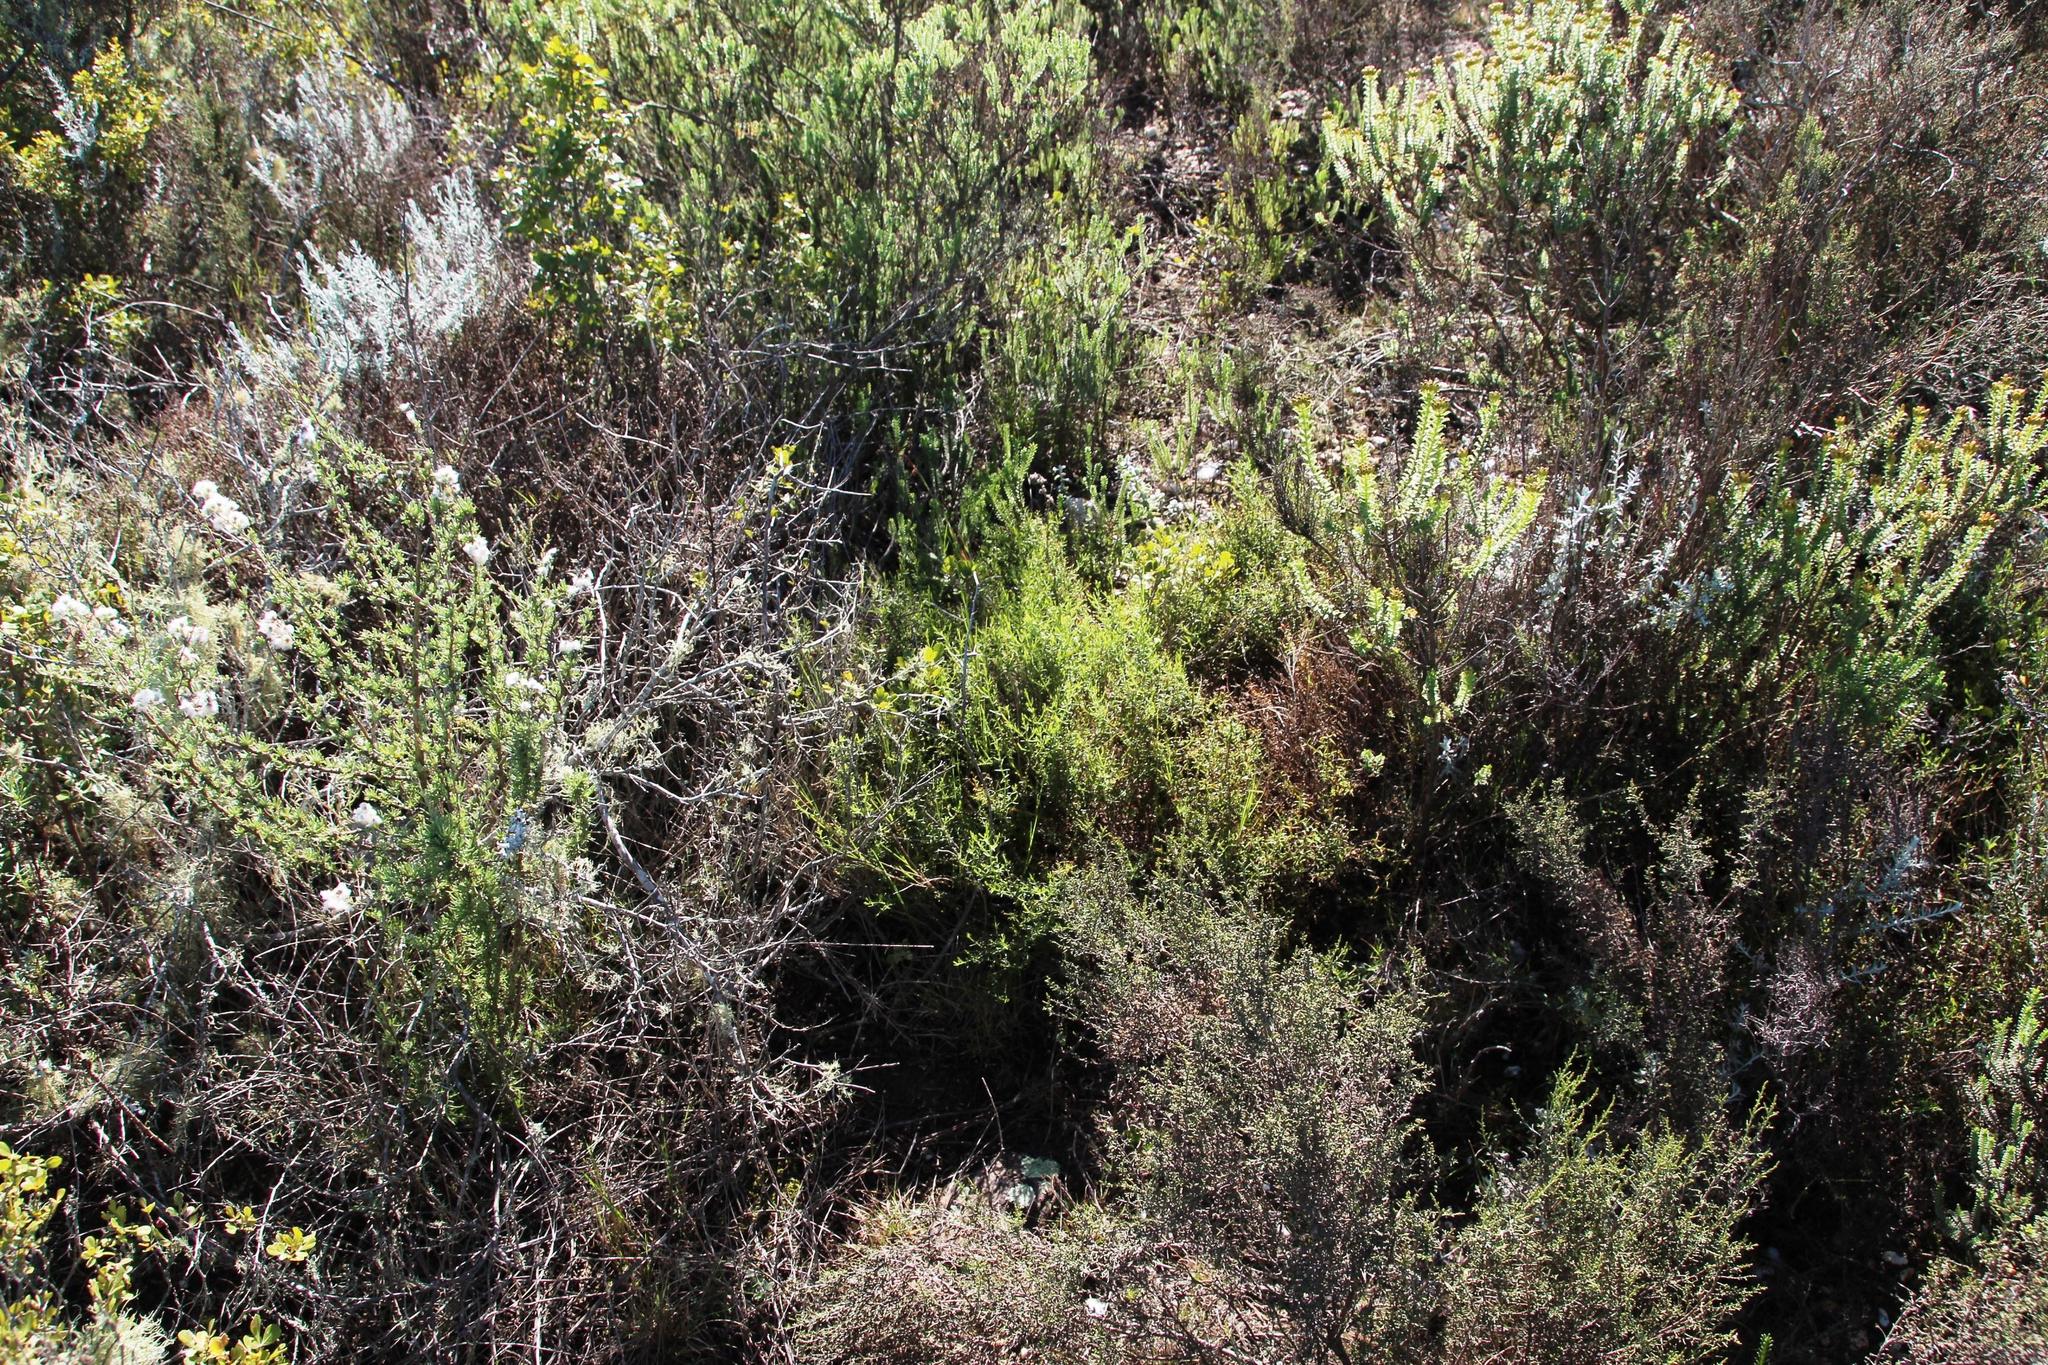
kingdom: Plantae
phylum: Tracheophyta
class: Magnoliopsida
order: Gentianales
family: Gentianaceae
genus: Chironia
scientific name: Chironia baccifera
